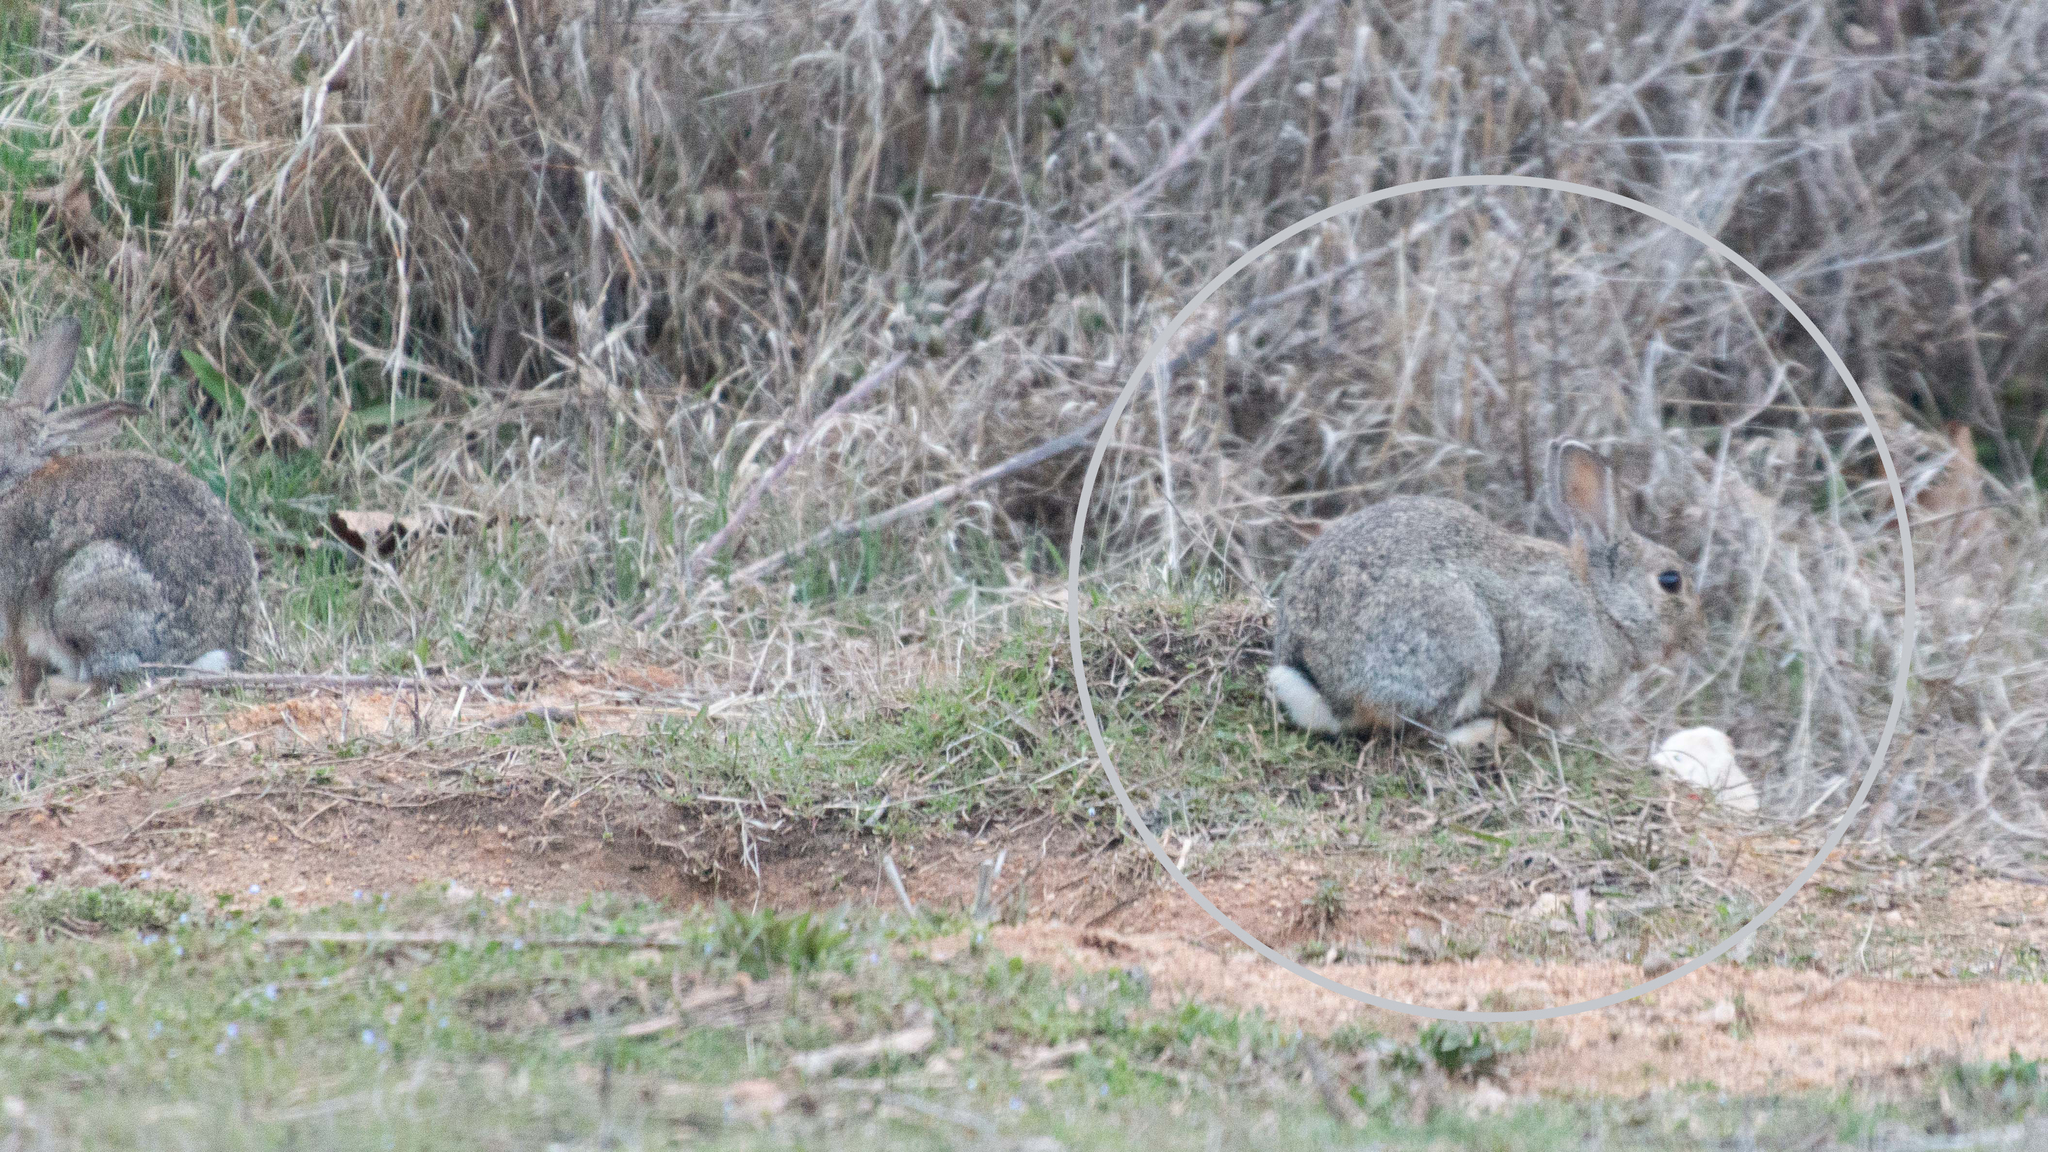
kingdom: Animalia
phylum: Chordata
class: Mammalia
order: Lagomorpha
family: Leporidae
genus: Oryctolagus
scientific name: Oryctolagus cuniculus
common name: European rabbit
